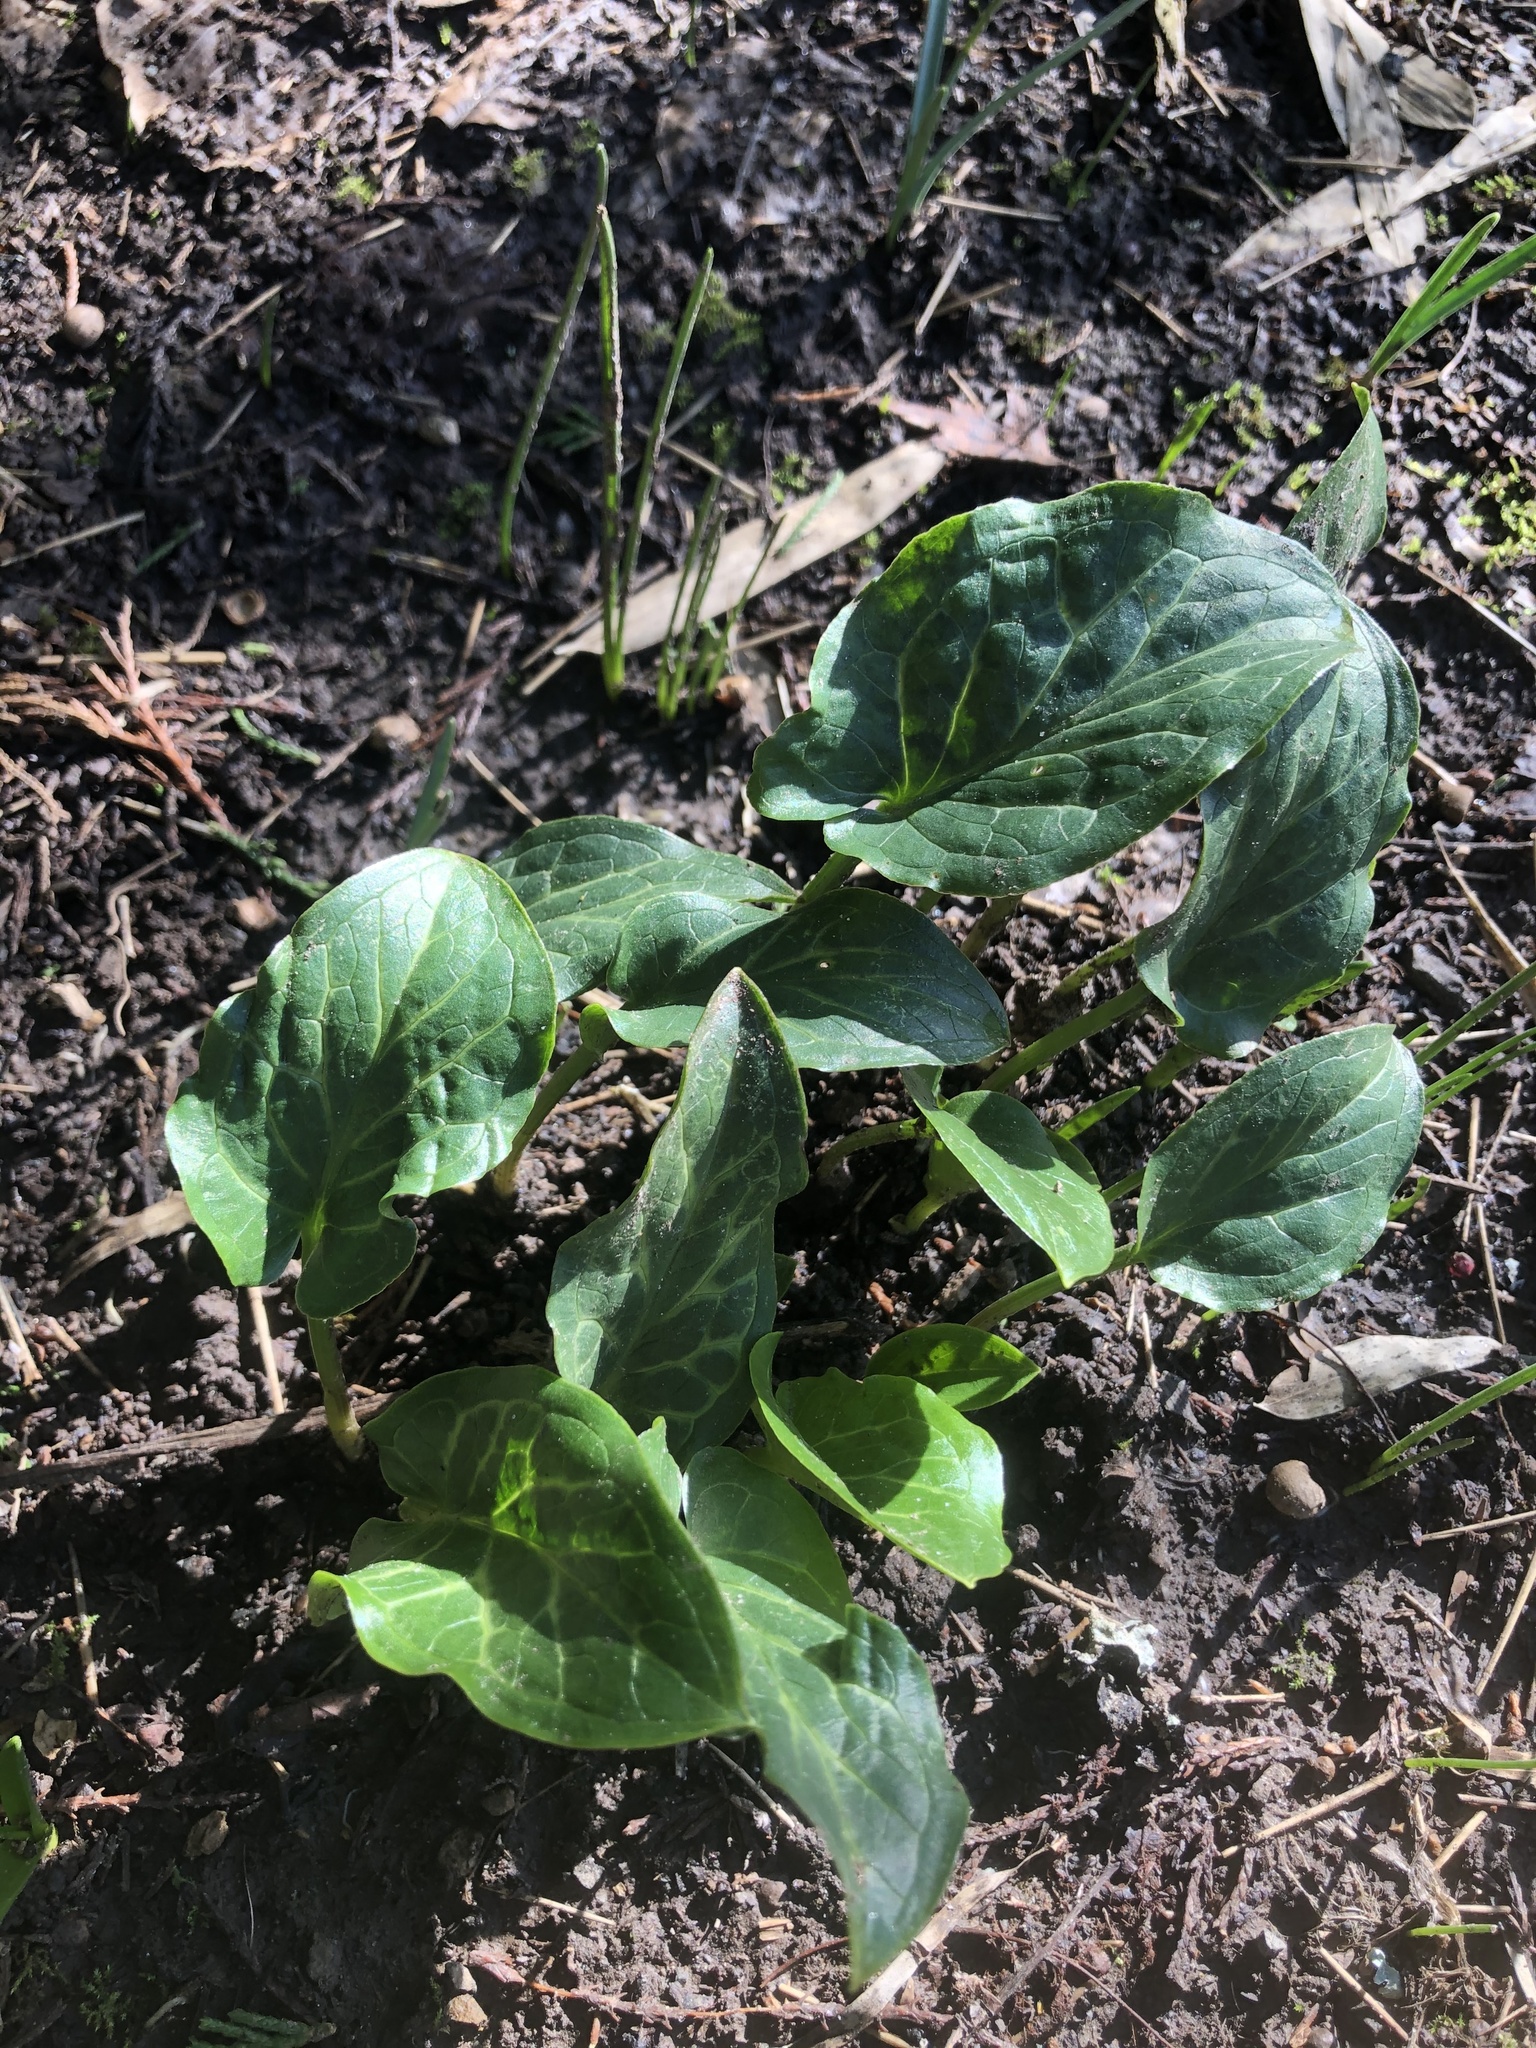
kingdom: Plantae
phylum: Tracheophyta
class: Liliopsida
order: Alismatales
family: Araceae
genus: Arum
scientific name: Arum italicum
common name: Italian lords-and-ladies
